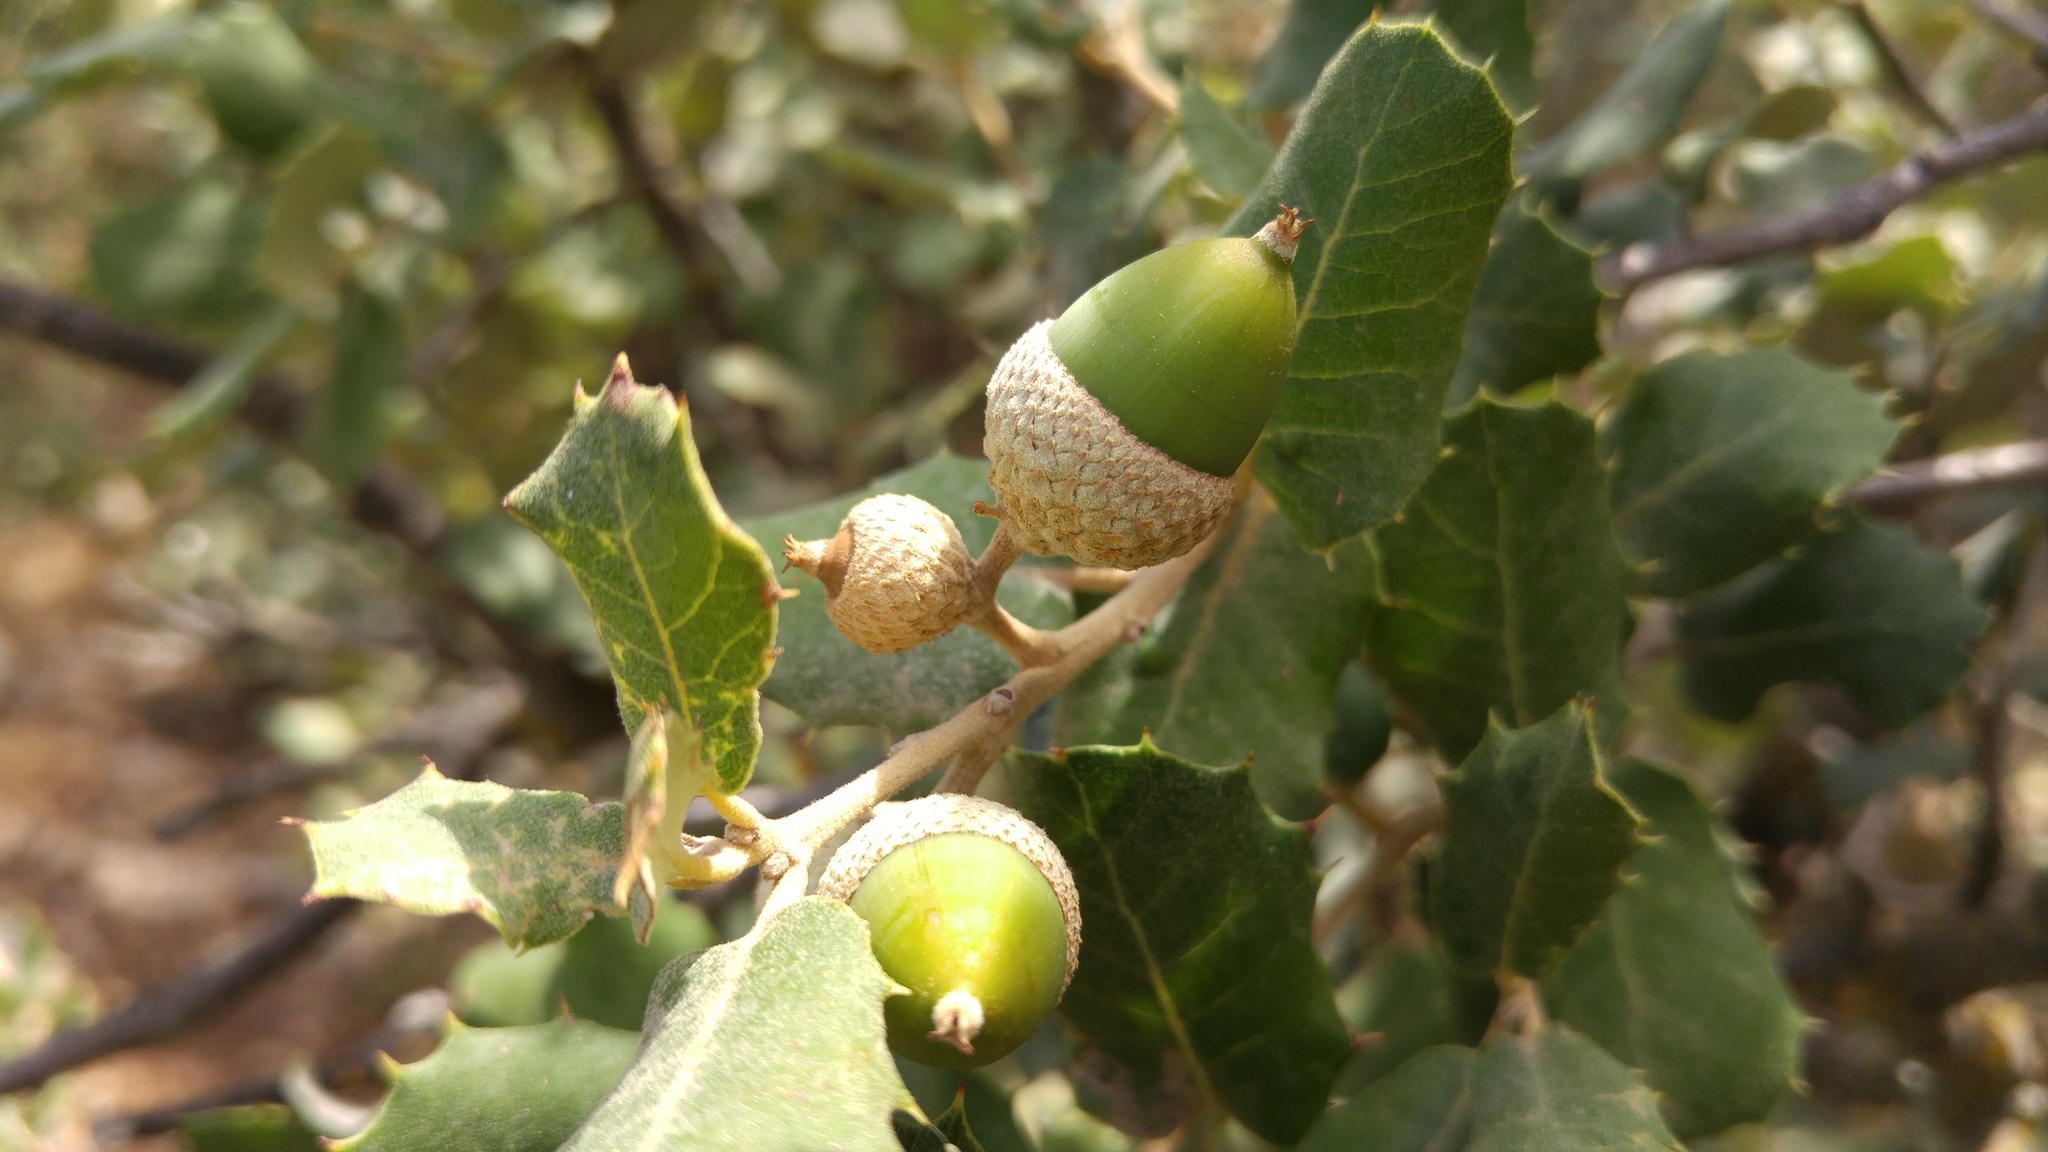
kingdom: Plantae
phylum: Tracheophyta
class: Magnoliopsida
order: Fagales
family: Fagaceae
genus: Quercus
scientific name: Quercus rotundifolia
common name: Holm oak
